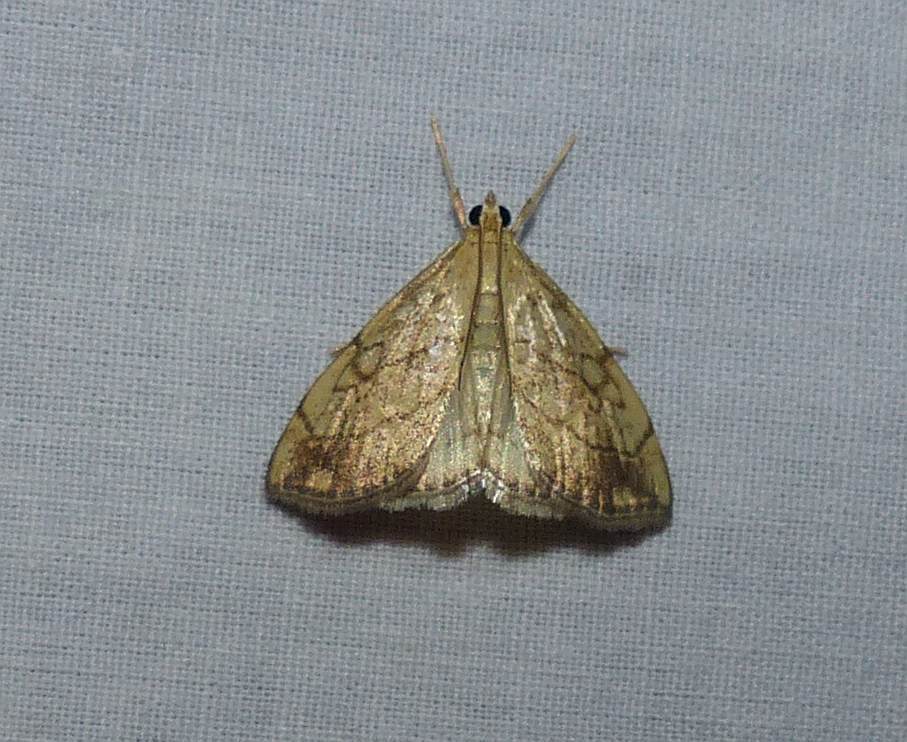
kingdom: Animalia
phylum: Arthropoda
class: Insecta
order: Lepidoptera
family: Crambidae
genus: Evergestis
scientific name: Evergestis pallidata
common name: Chequered pearl
